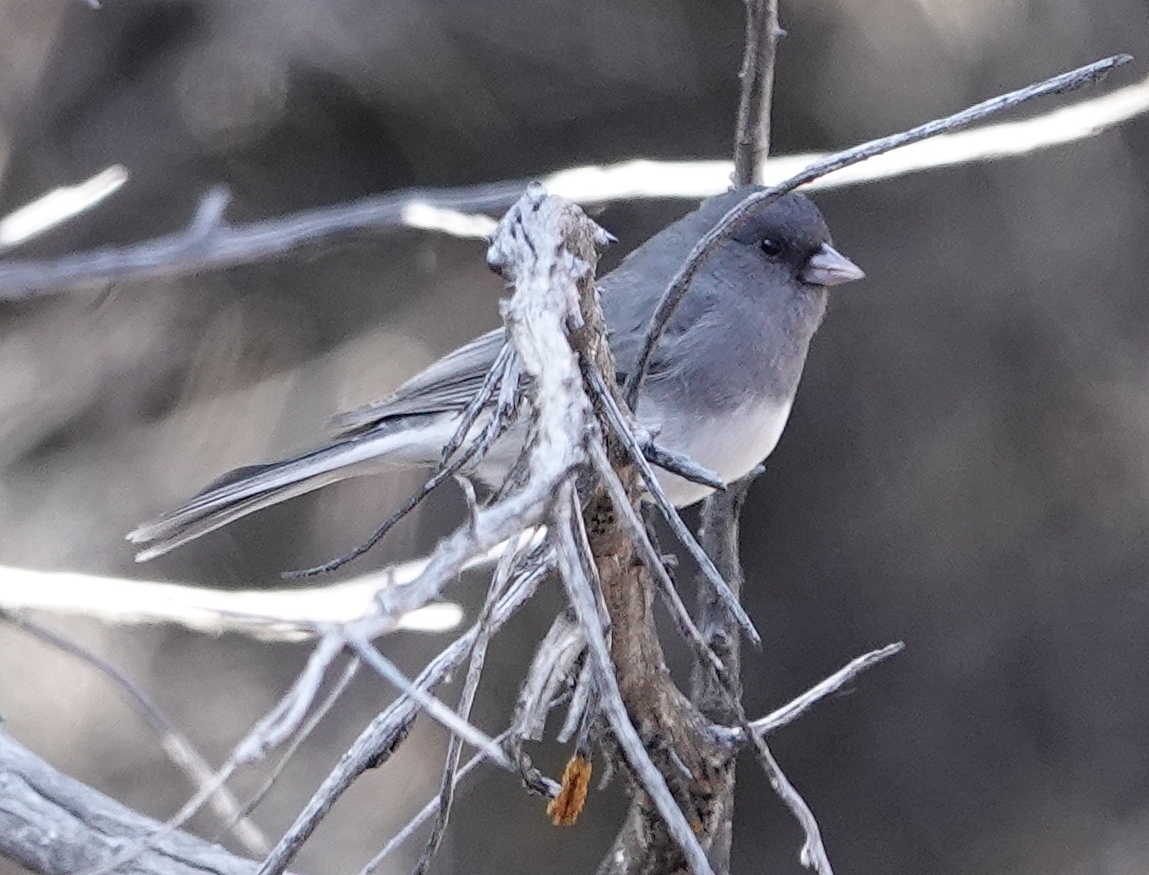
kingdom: Animalia
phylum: Chordata
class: Aves
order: Passeriformes
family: Passerellidae
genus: Junco
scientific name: Junco hyemalis
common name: Dark-eyed junco
